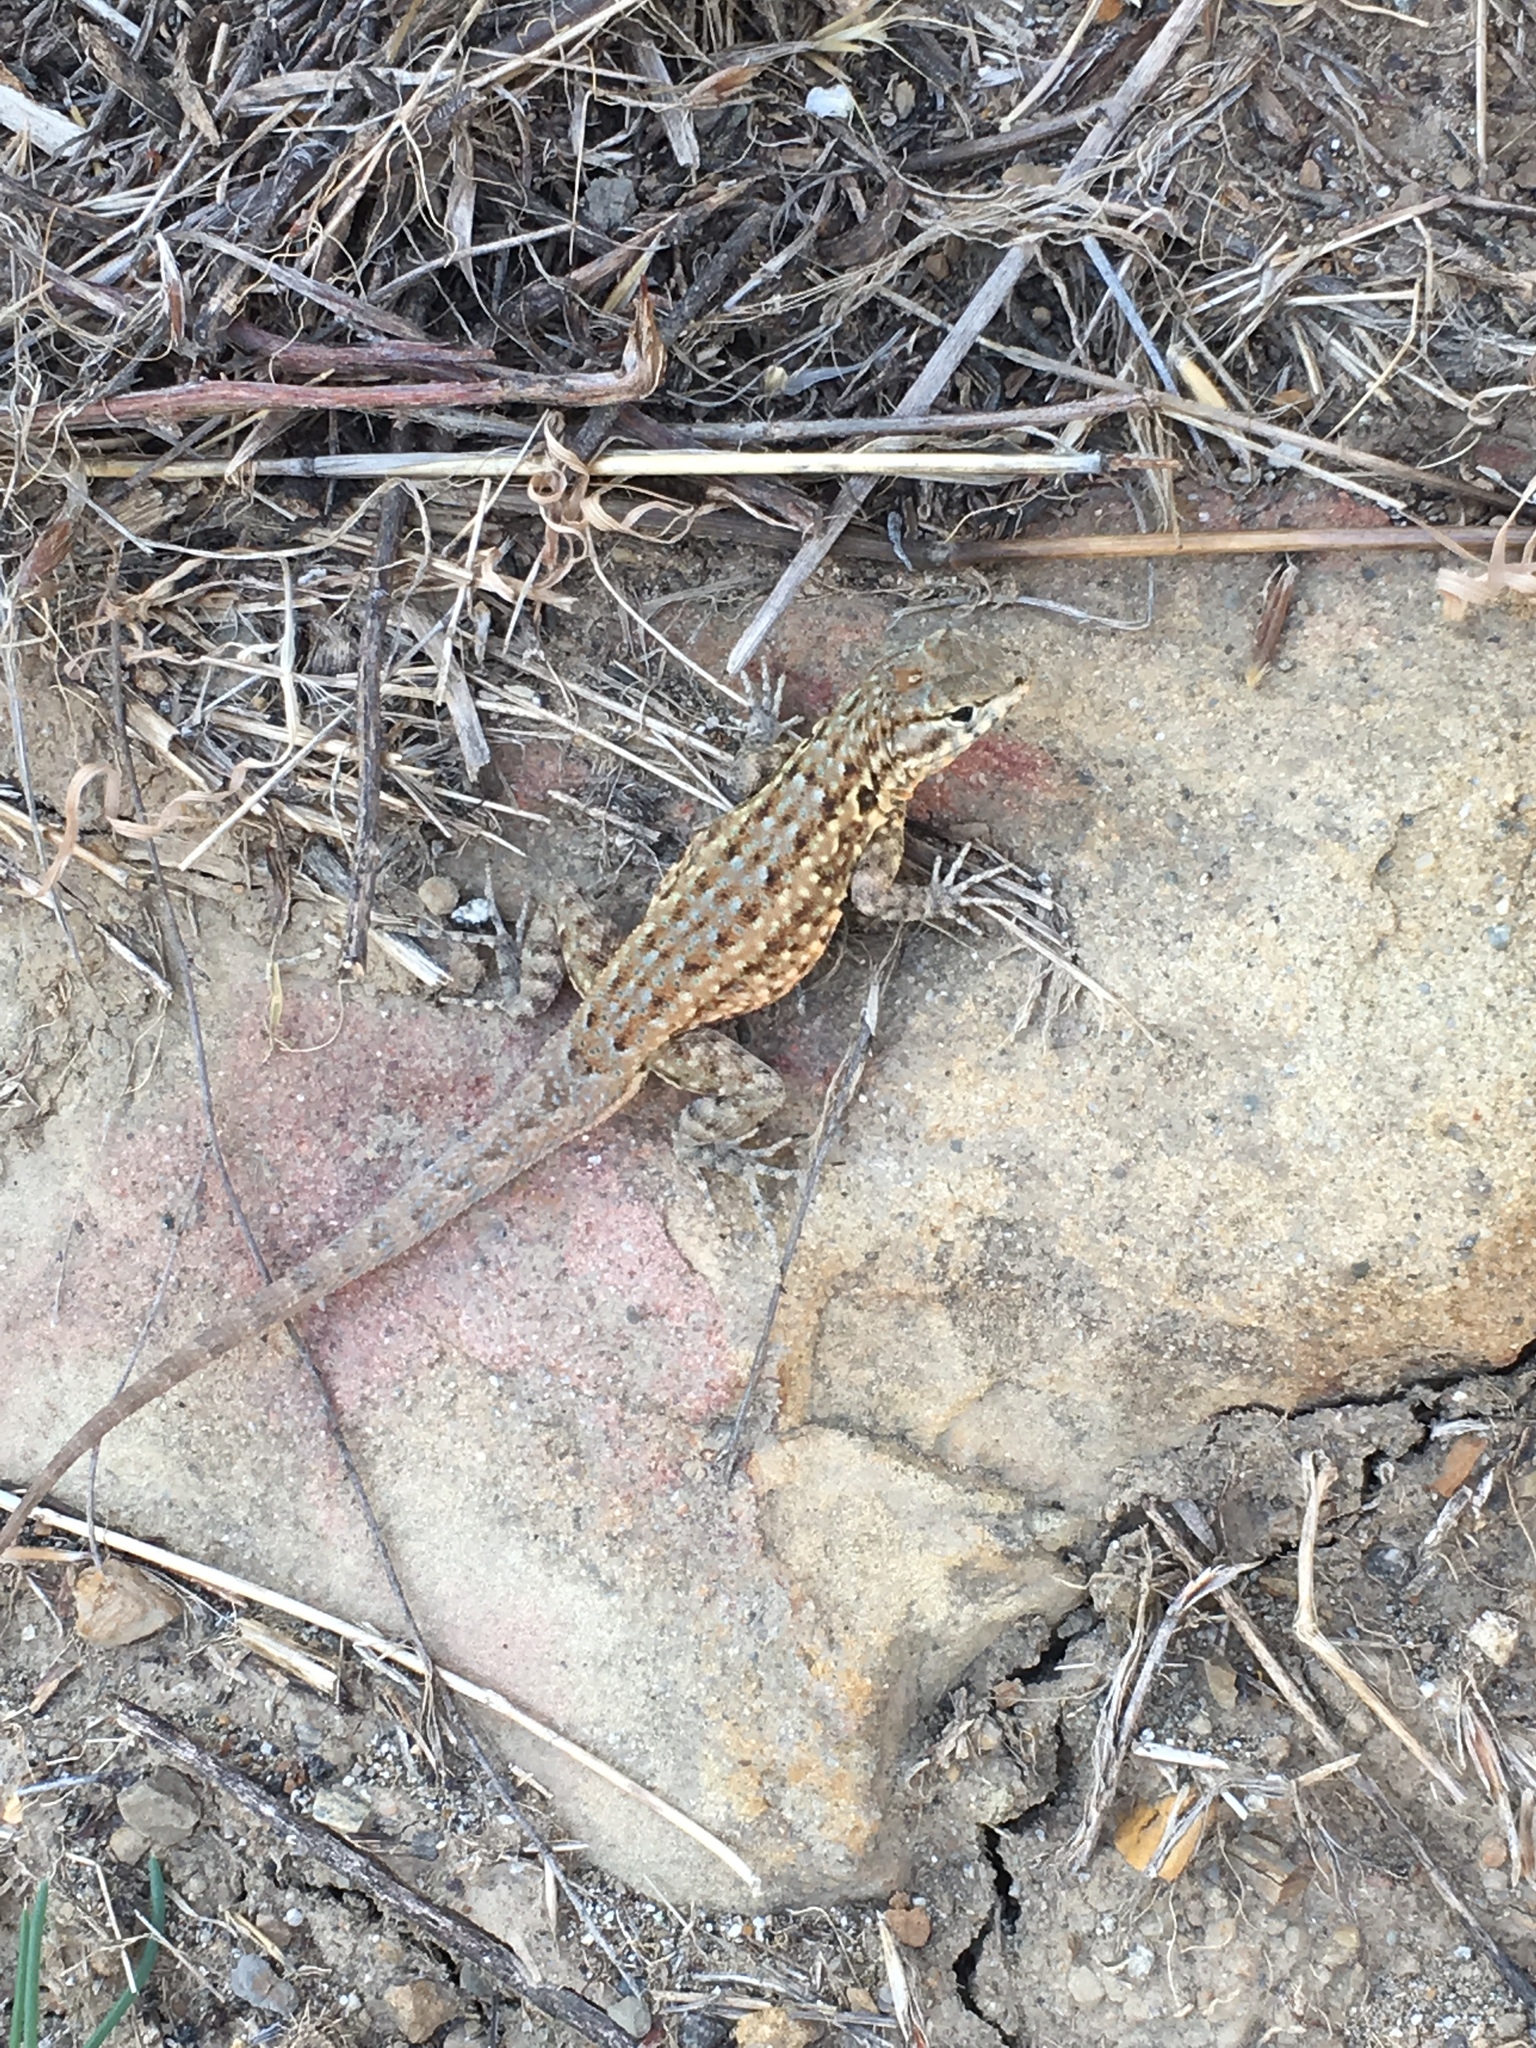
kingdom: Animalia
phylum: Chordata
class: Squamata
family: Phrynosomatidae
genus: Uta
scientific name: Uta stansburiana
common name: Side-blotched lizard
